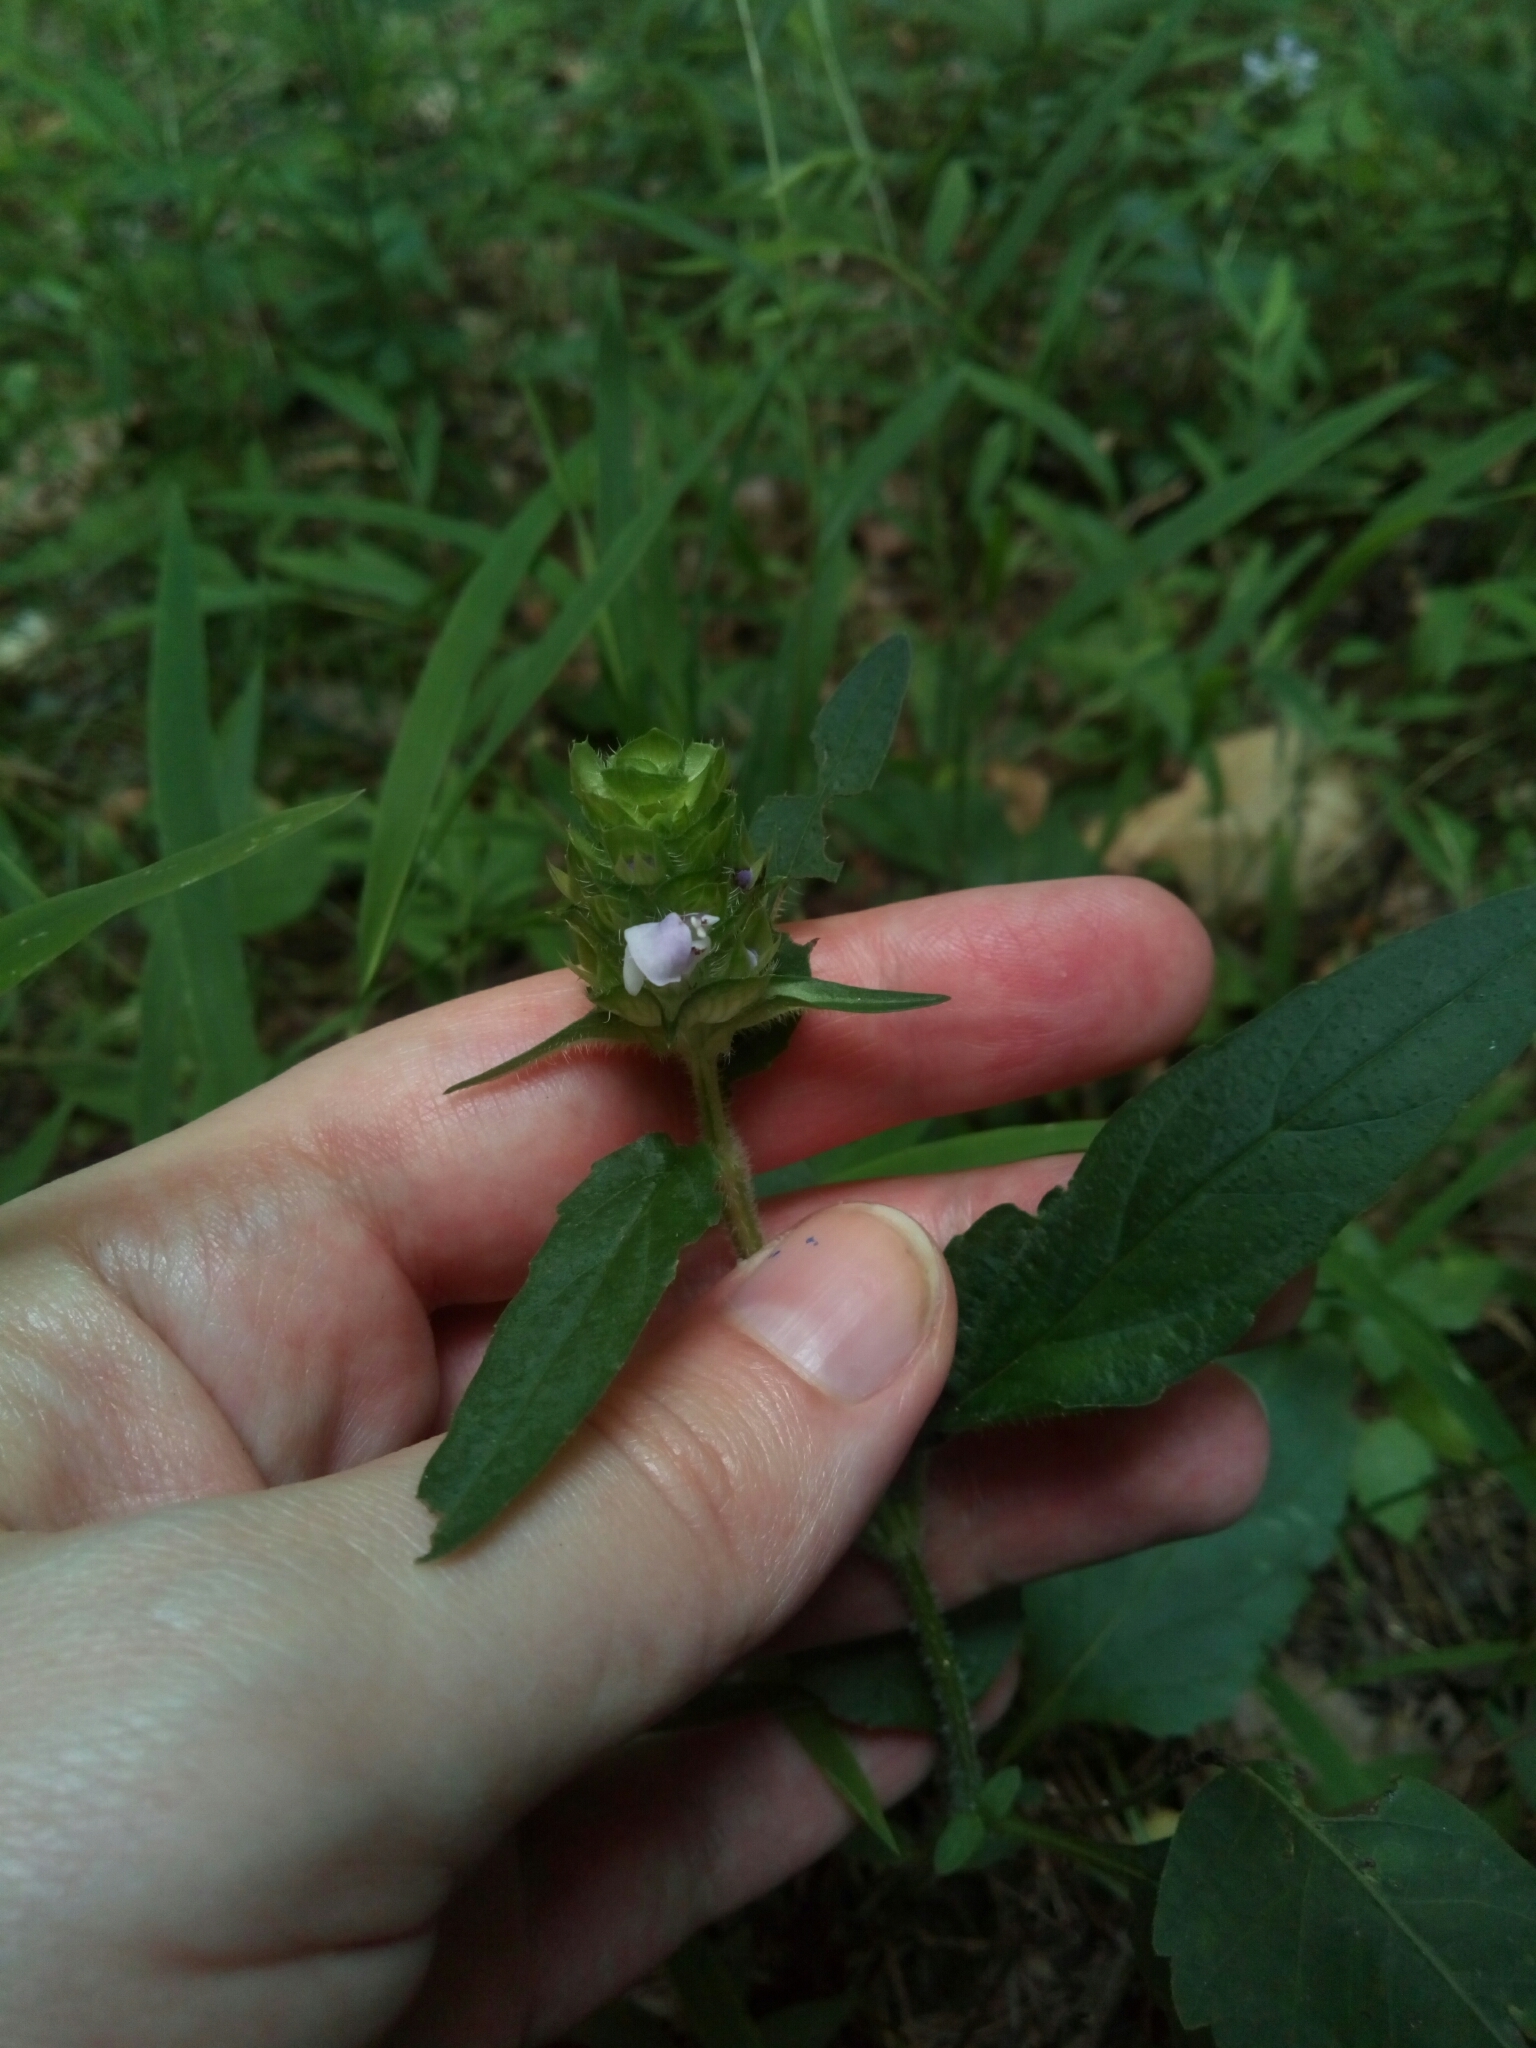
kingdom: Plantae
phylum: Tracheophyta
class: Magnoliopsida
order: Lamiales
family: Lamiaceae
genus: Prunella
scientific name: Prunella vulgaris
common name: Heal-all
